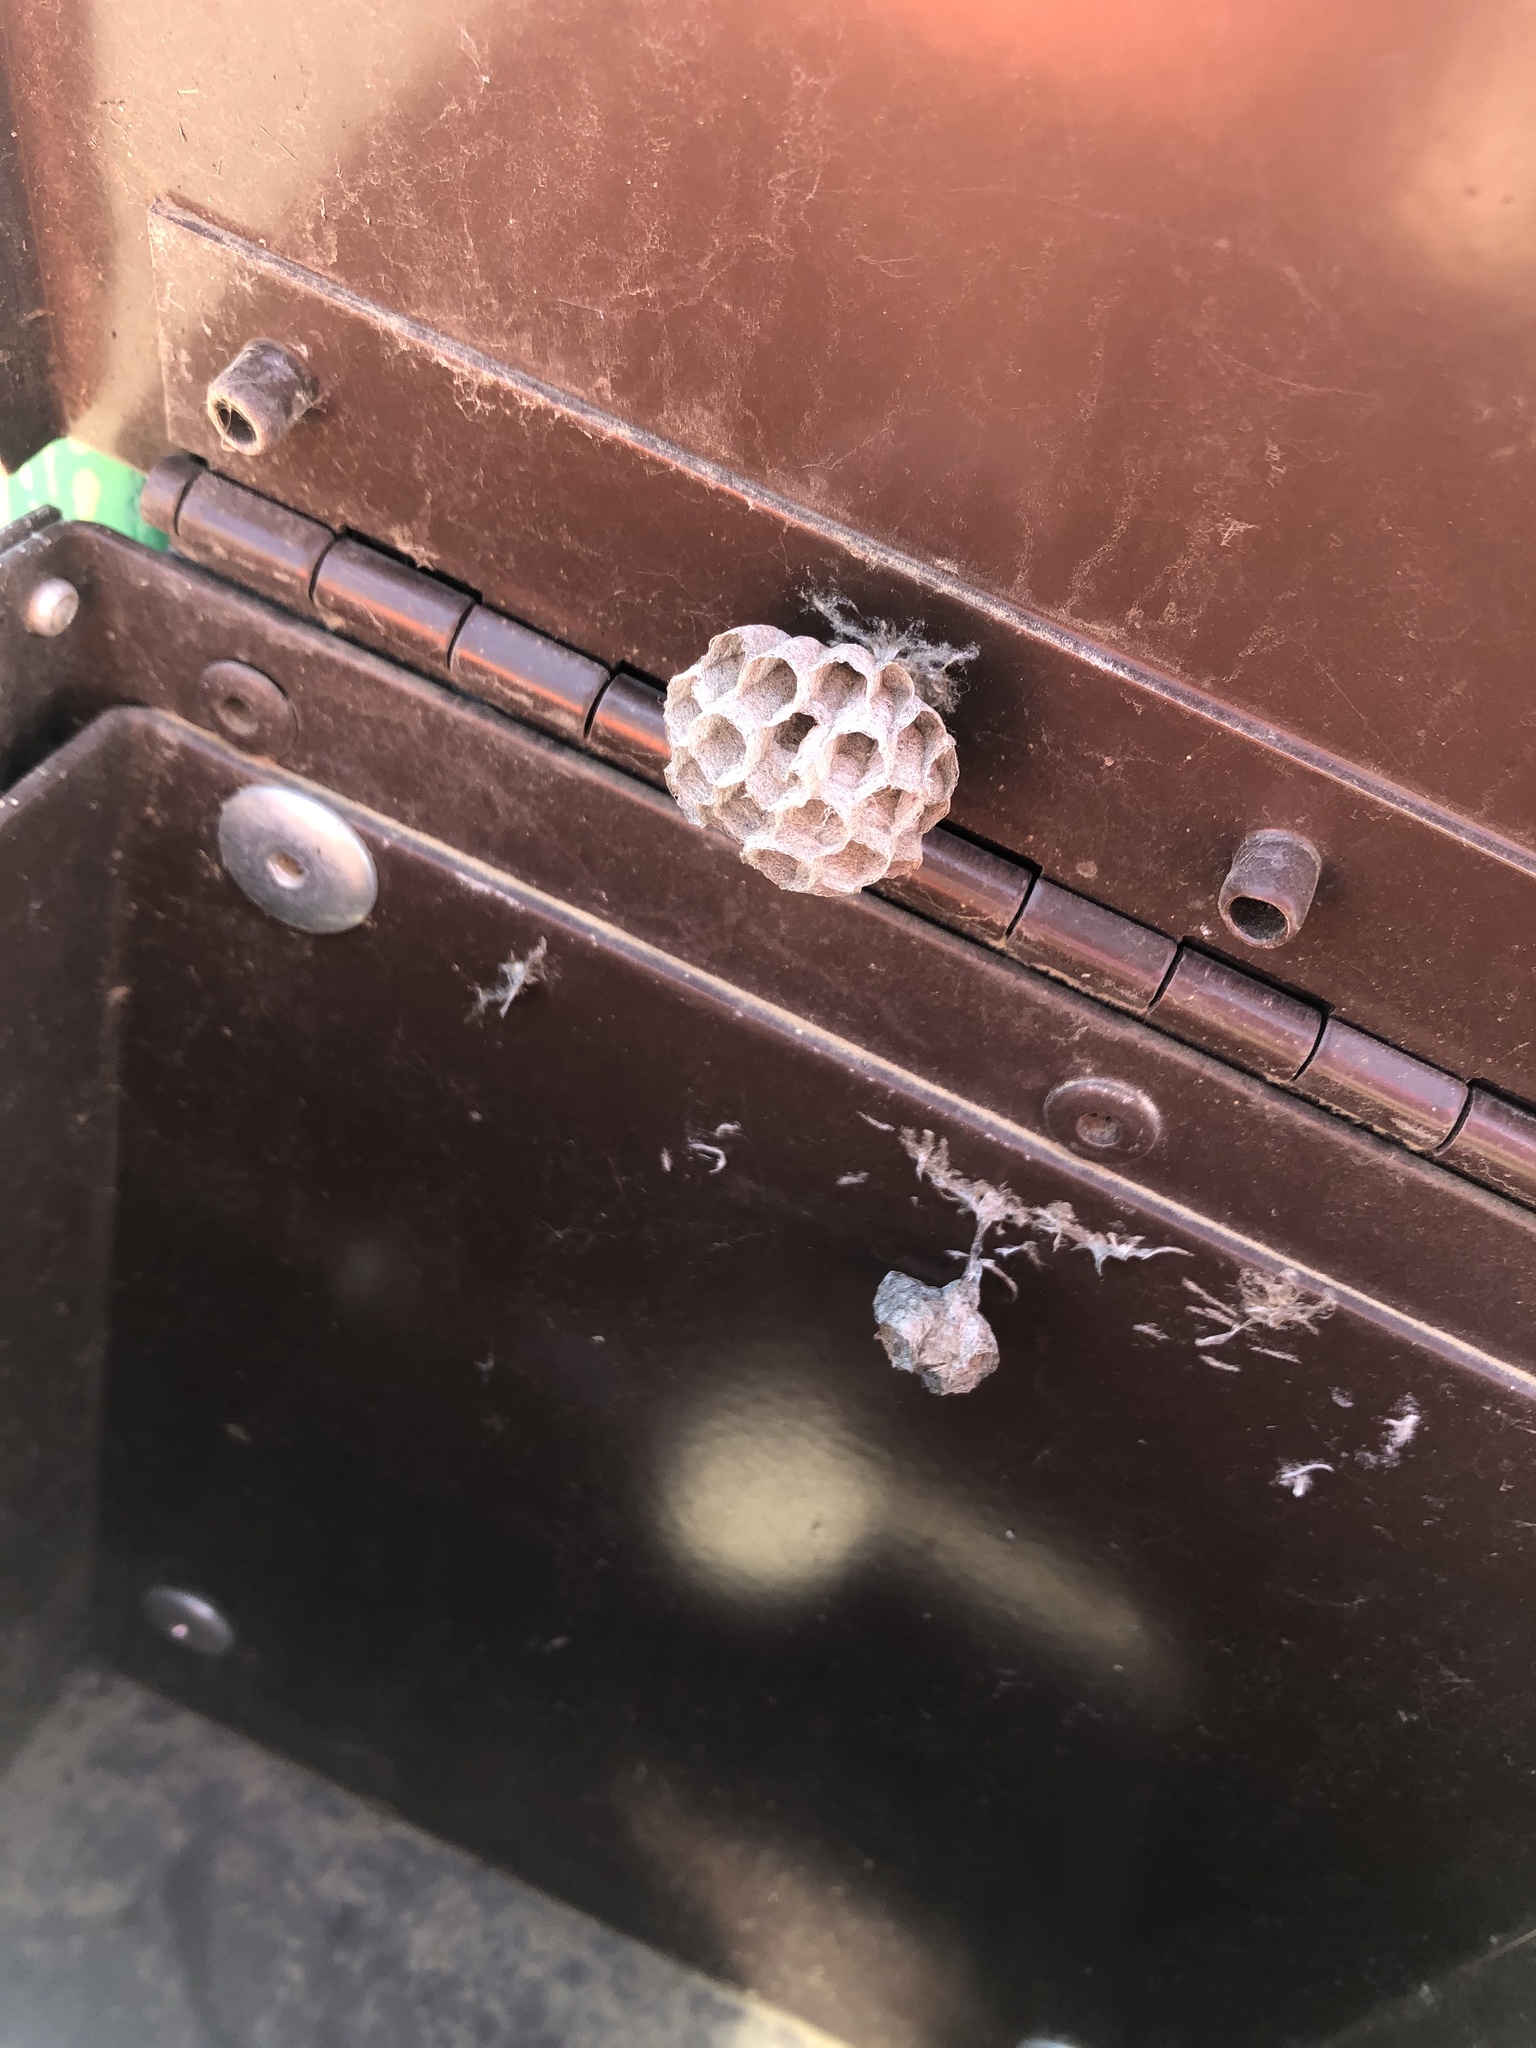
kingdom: Animalia
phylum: Arthropoda
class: Insecta
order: Hymenoptera
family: Vespidae
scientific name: Vespidae
